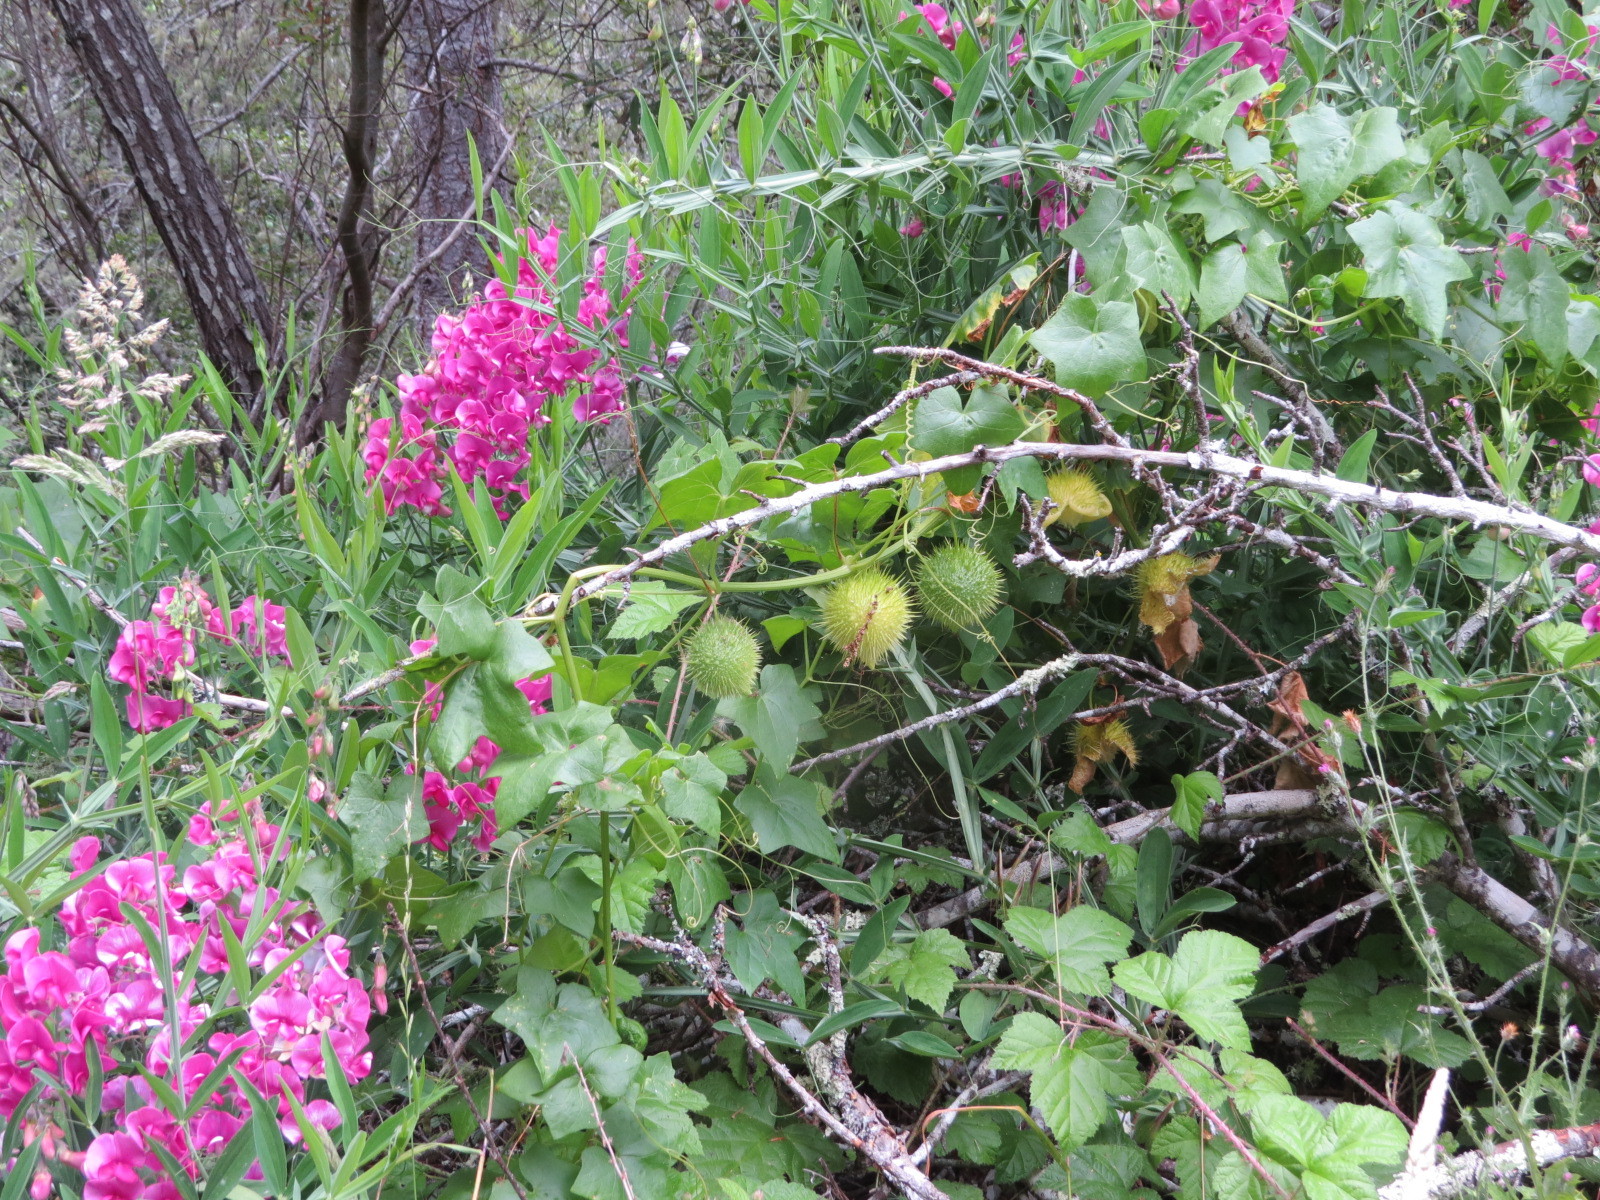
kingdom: Plantae
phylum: Tracheophyta
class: Magnoliopsida
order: Cucurbitales
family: Cucurbitaceae
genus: Marah
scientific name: Marah fabacea
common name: California manroot
